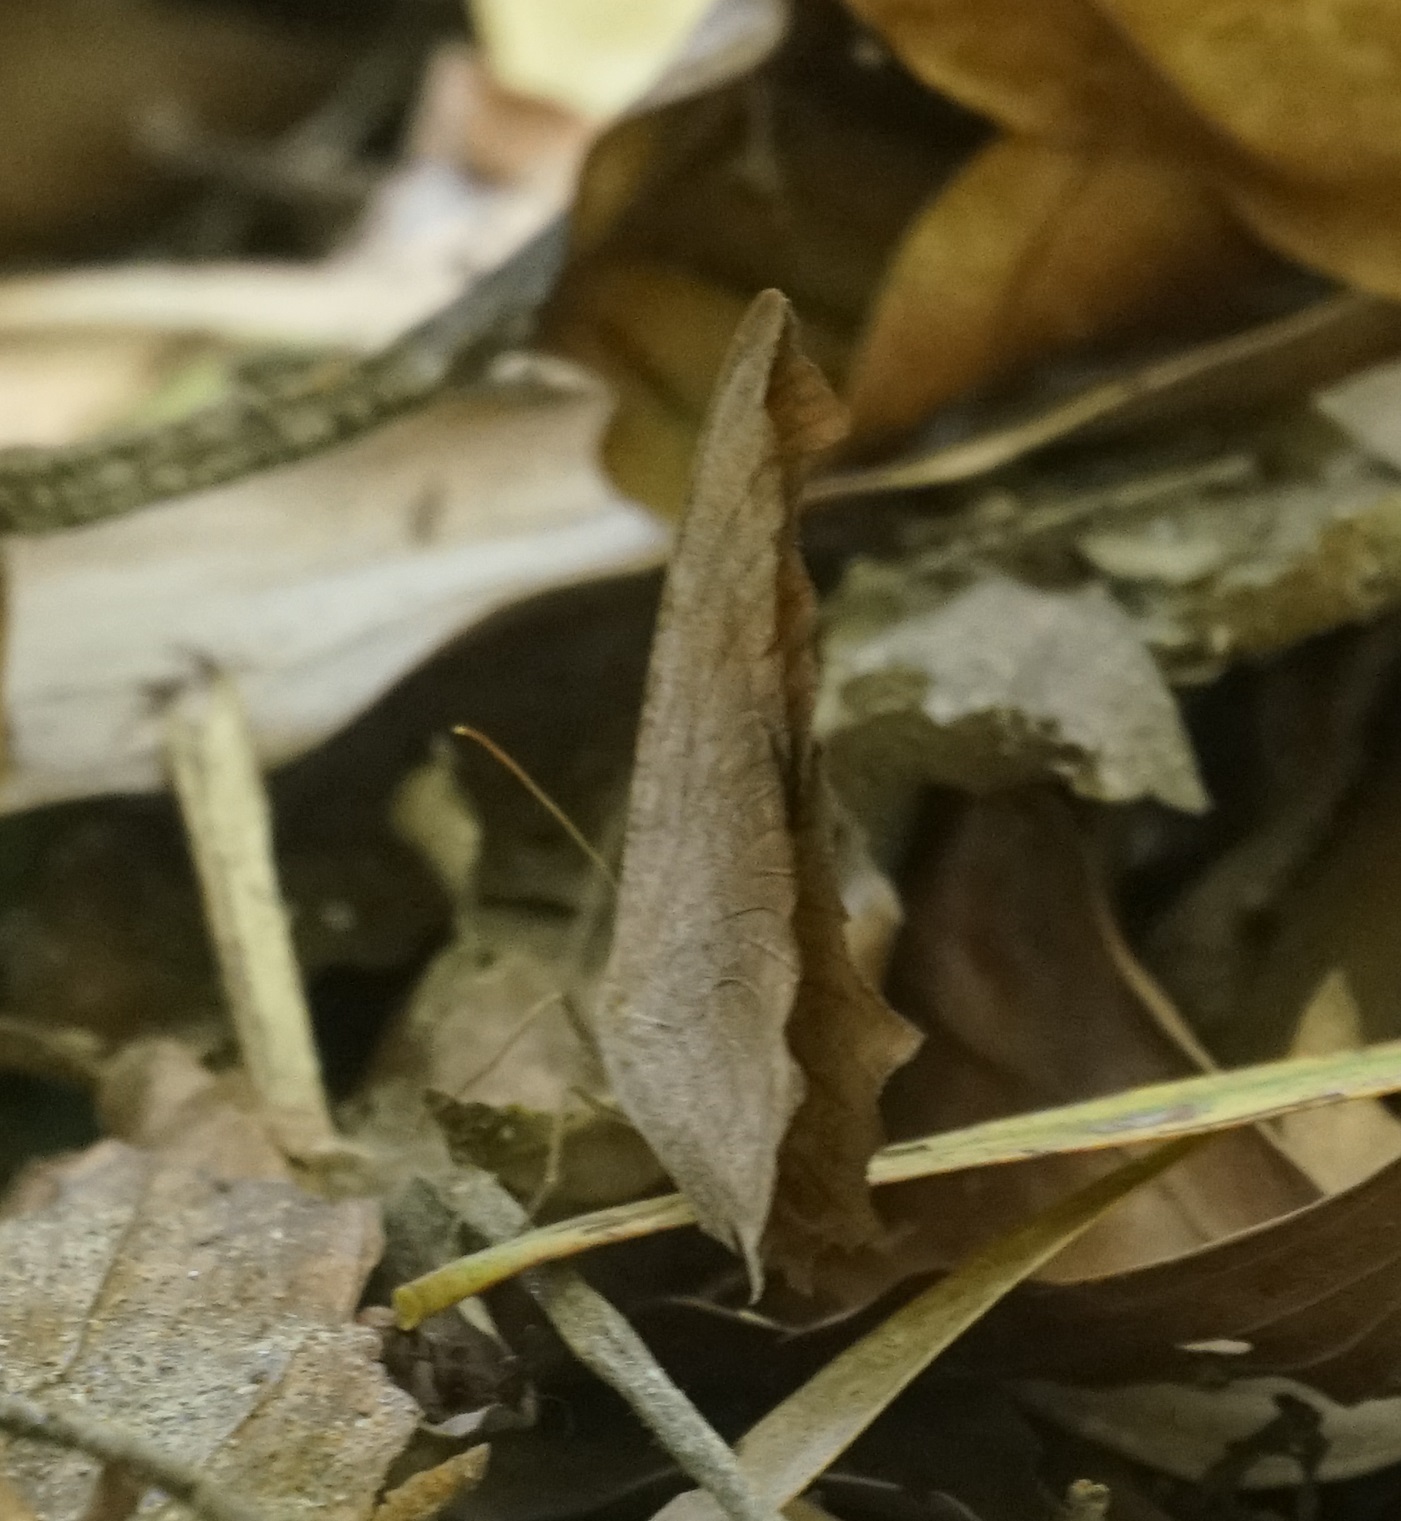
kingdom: Animalia
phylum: Arthropoda
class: Insecta
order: Lepidoptera
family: Nymphalidae
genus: Melanitis
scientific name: Melanitis leda
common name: Twilight brown
